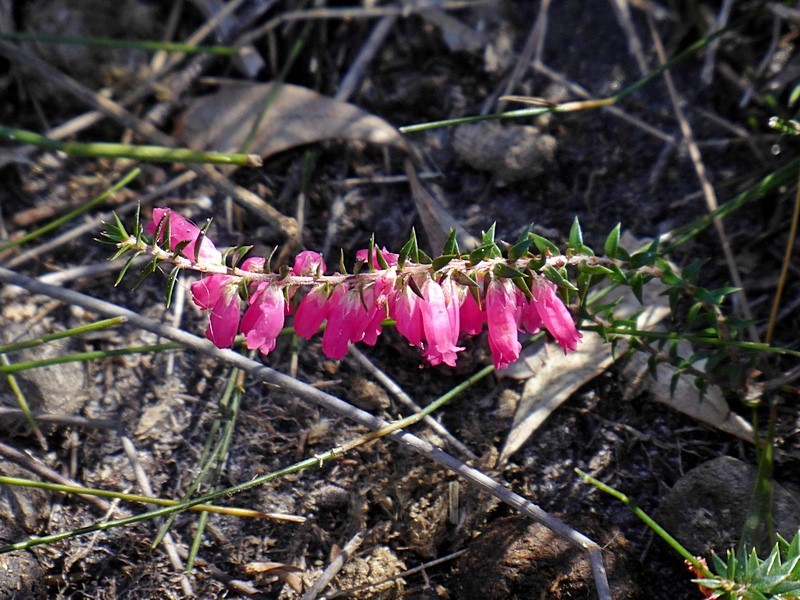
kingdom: Plantae
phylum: Tracheophyta
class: Magnoliopsida
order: Ericales
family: Ericaceae
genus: Epacris
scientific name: Epacris impressa
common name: Common-heath
